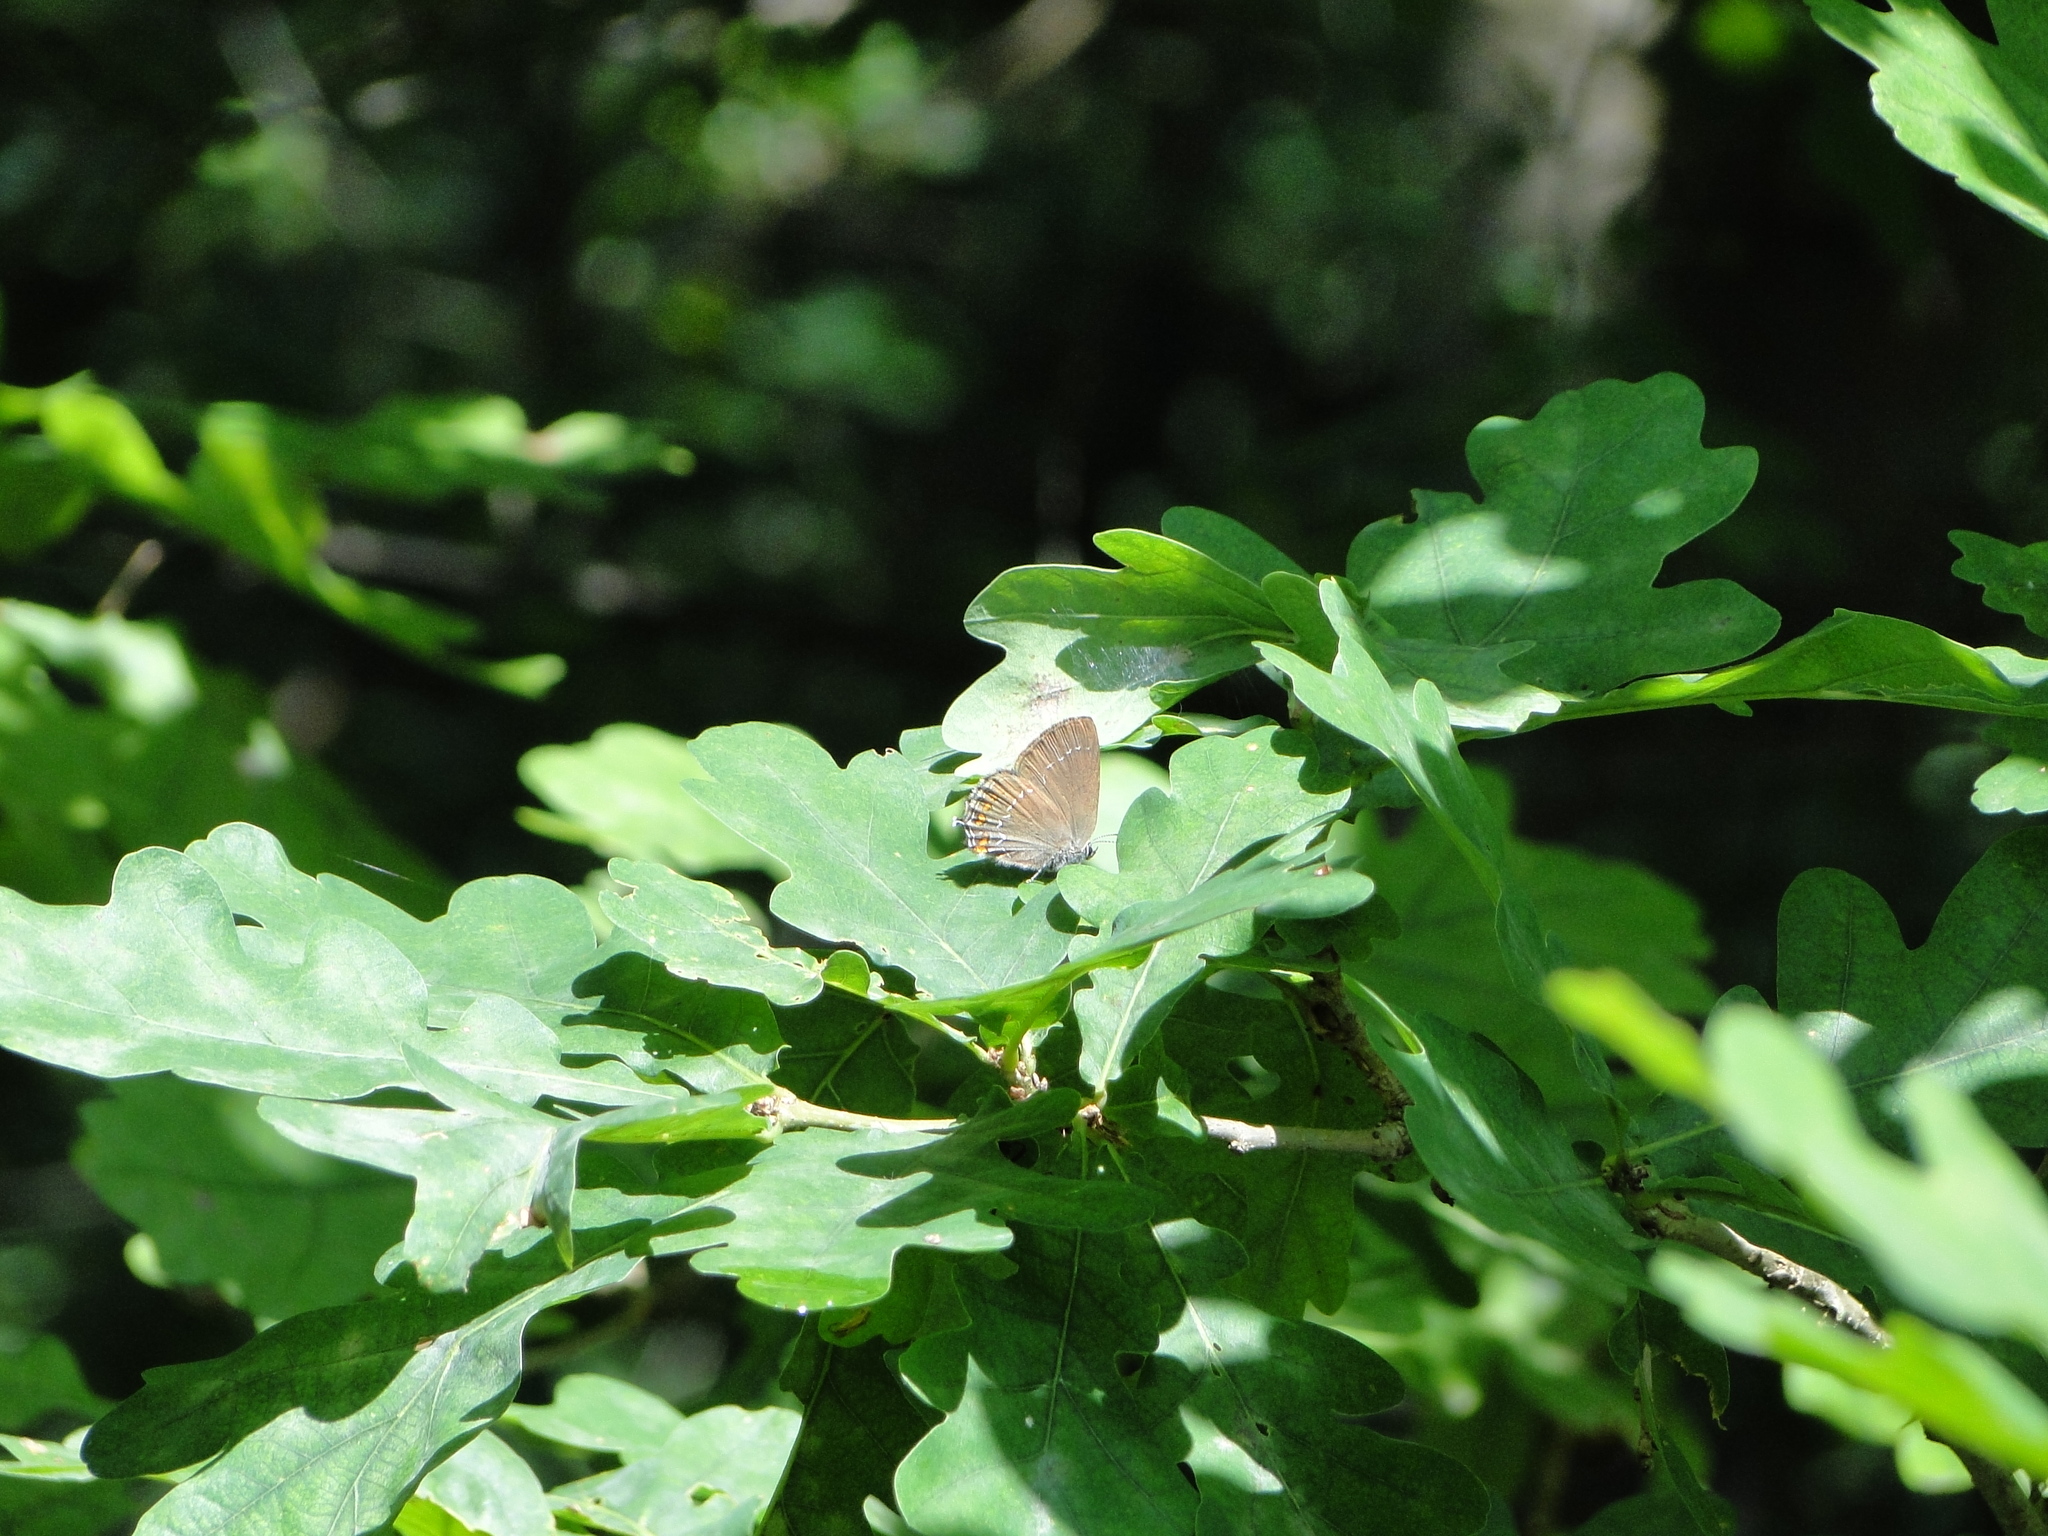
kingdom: Animalia
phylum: Arthropoda
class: Insecta
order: Lepidoptera
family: Lycaenidae
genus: Nordmannia
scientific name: Nordmannia ilicis
